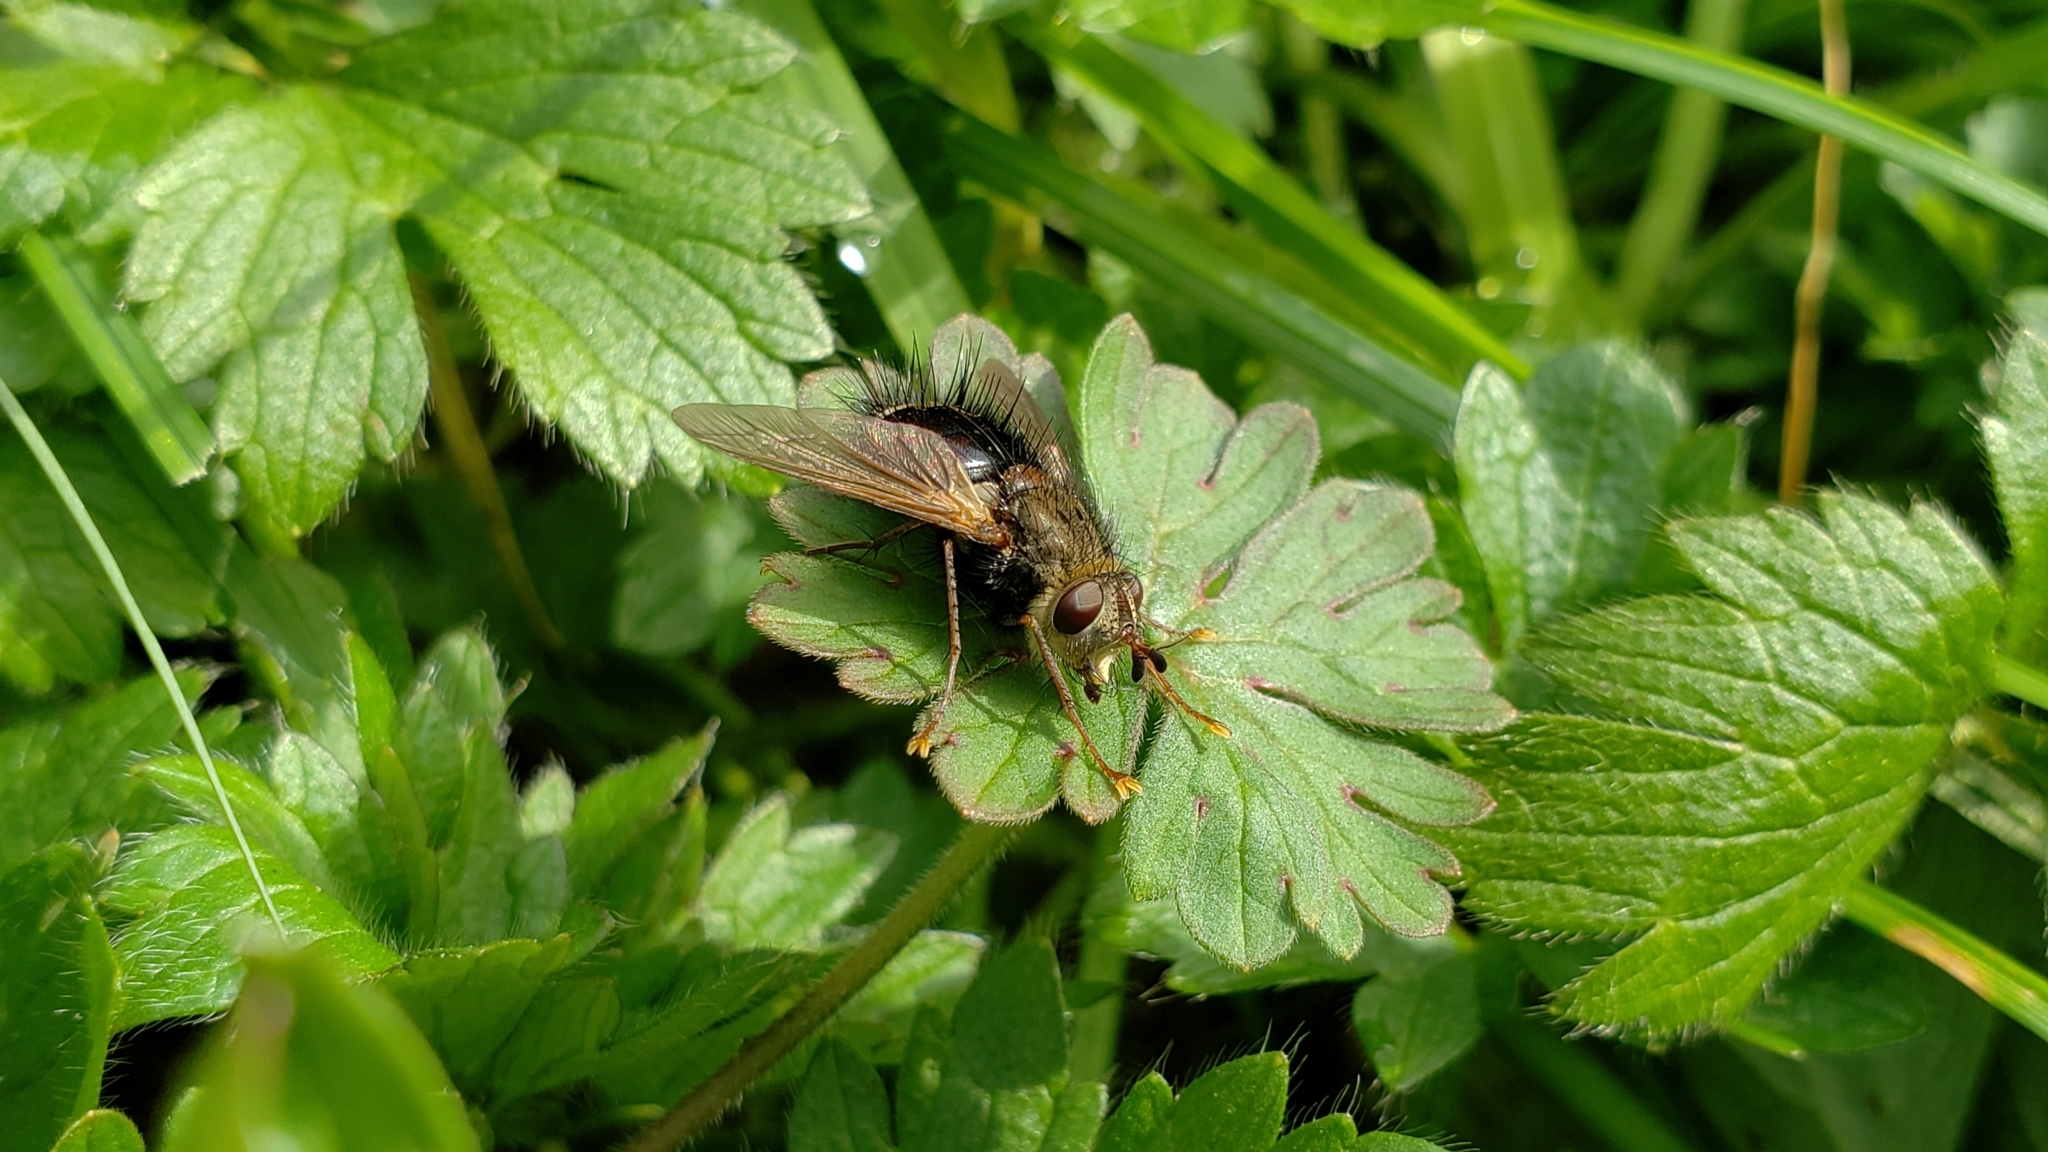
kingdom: Animalia
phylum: Arthropoda
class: Insecta
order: Diptera
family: Tachinidae
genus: Epalpus
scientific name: Epalpus signifer
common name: Early tachinid fly
